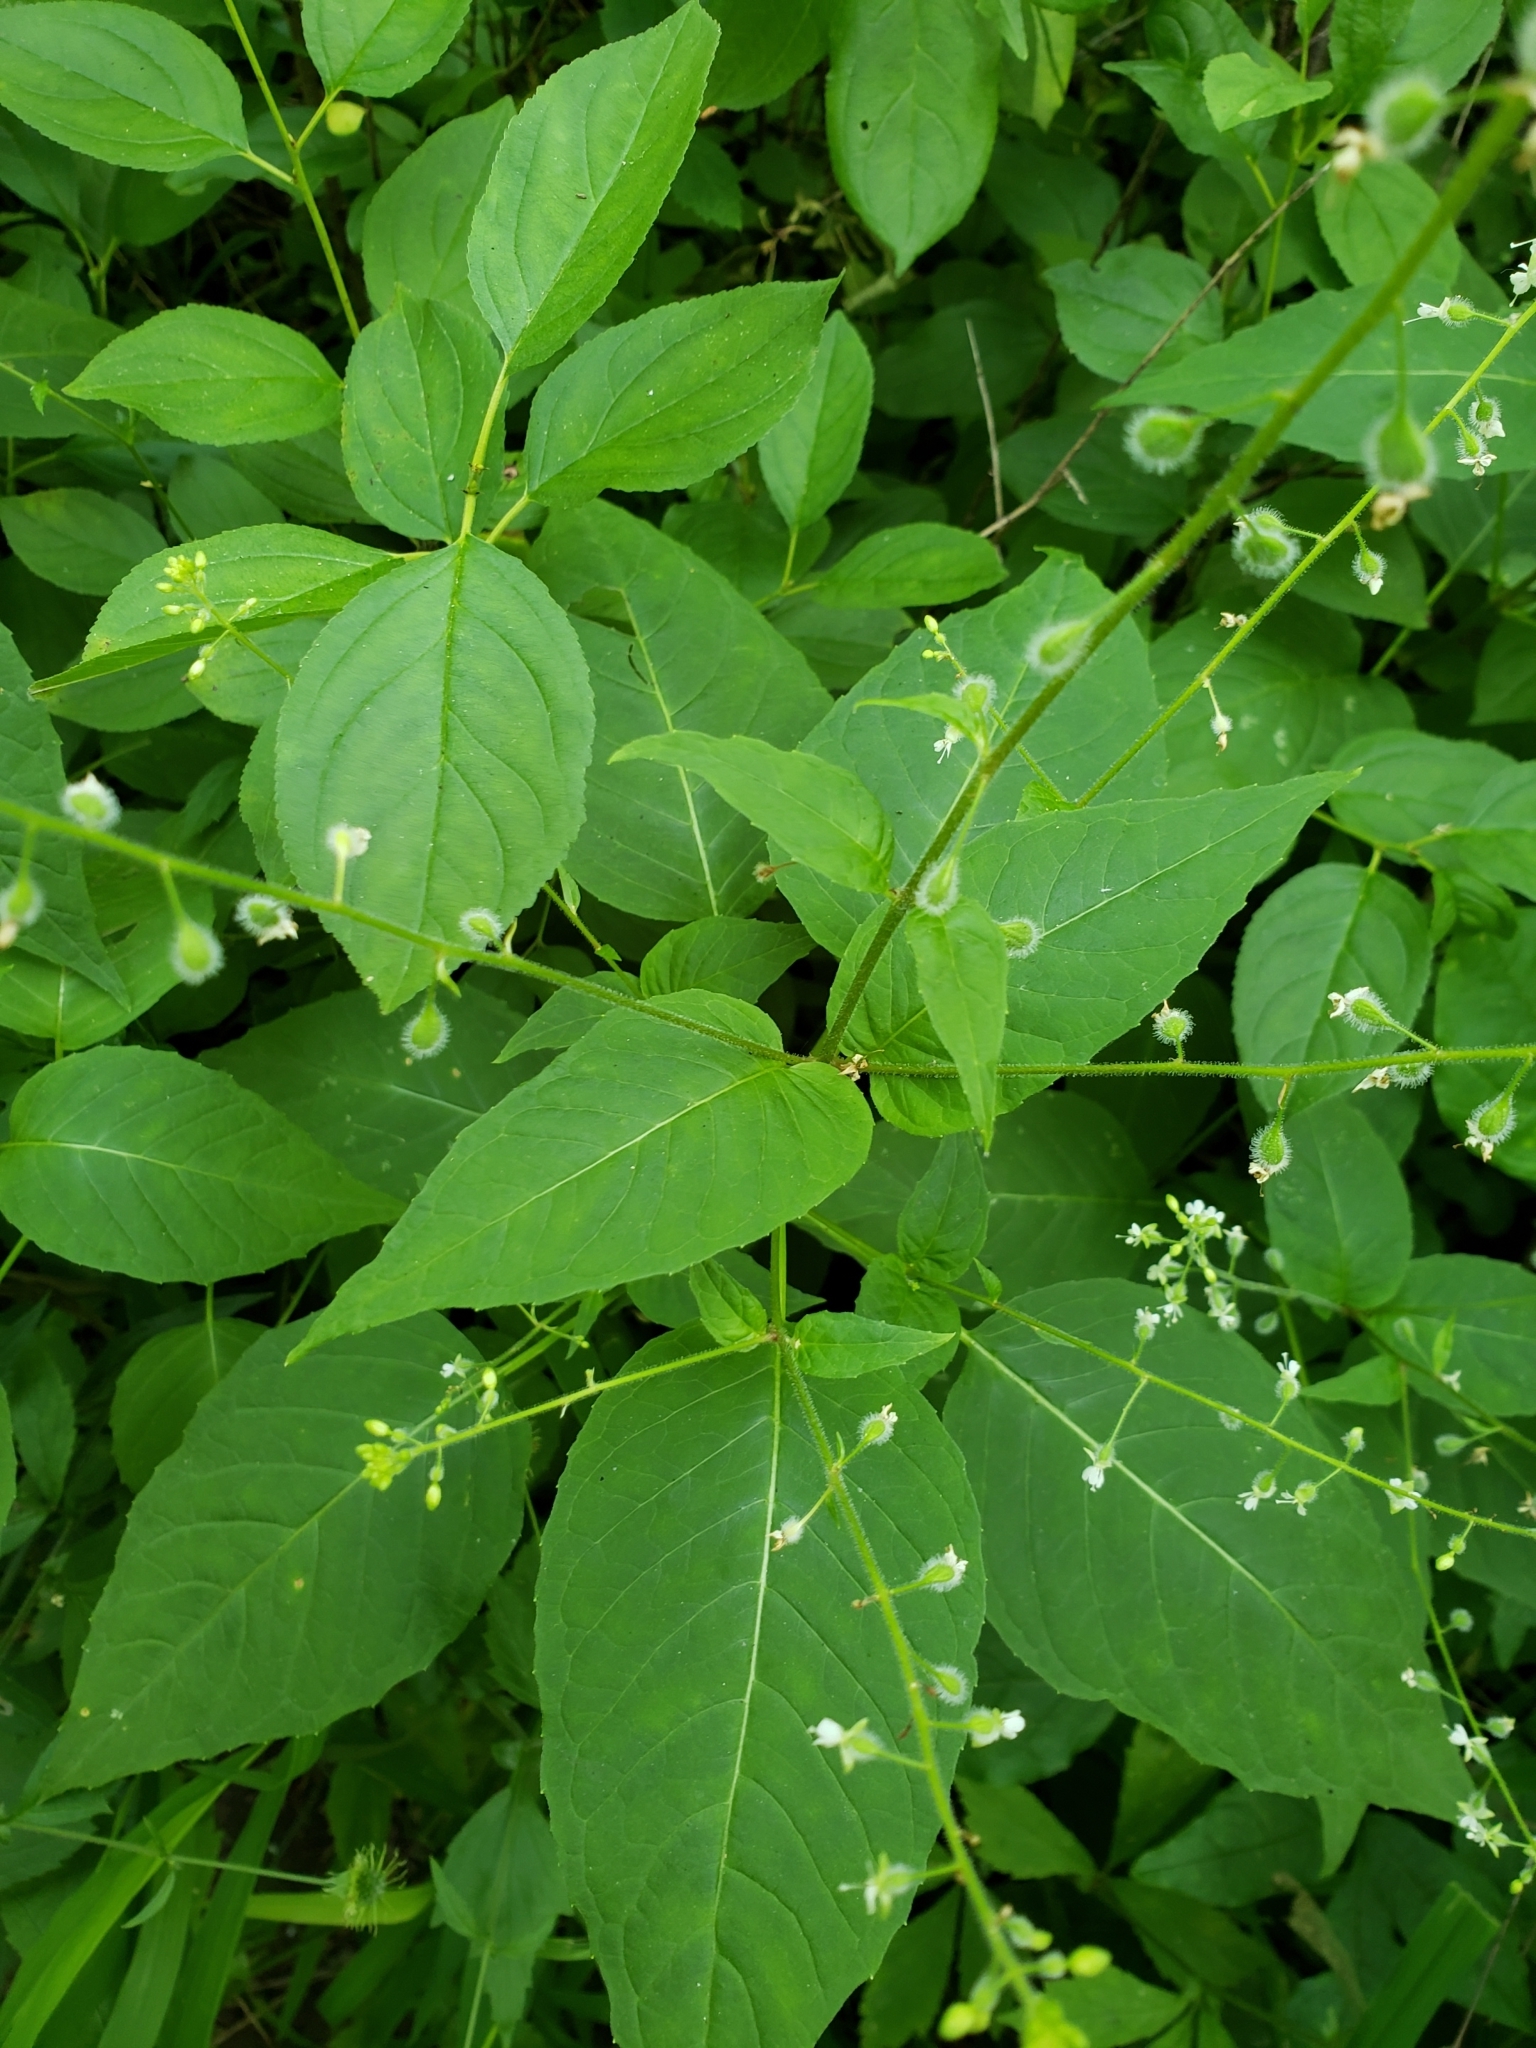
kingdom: Plantae
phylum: Tracheophyta
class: Magnoliopsida
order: Myrtales
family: Onagraceae
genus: Circaea
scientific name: Circaea canadensis
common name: Broad-leaved enchanter's nightshade
